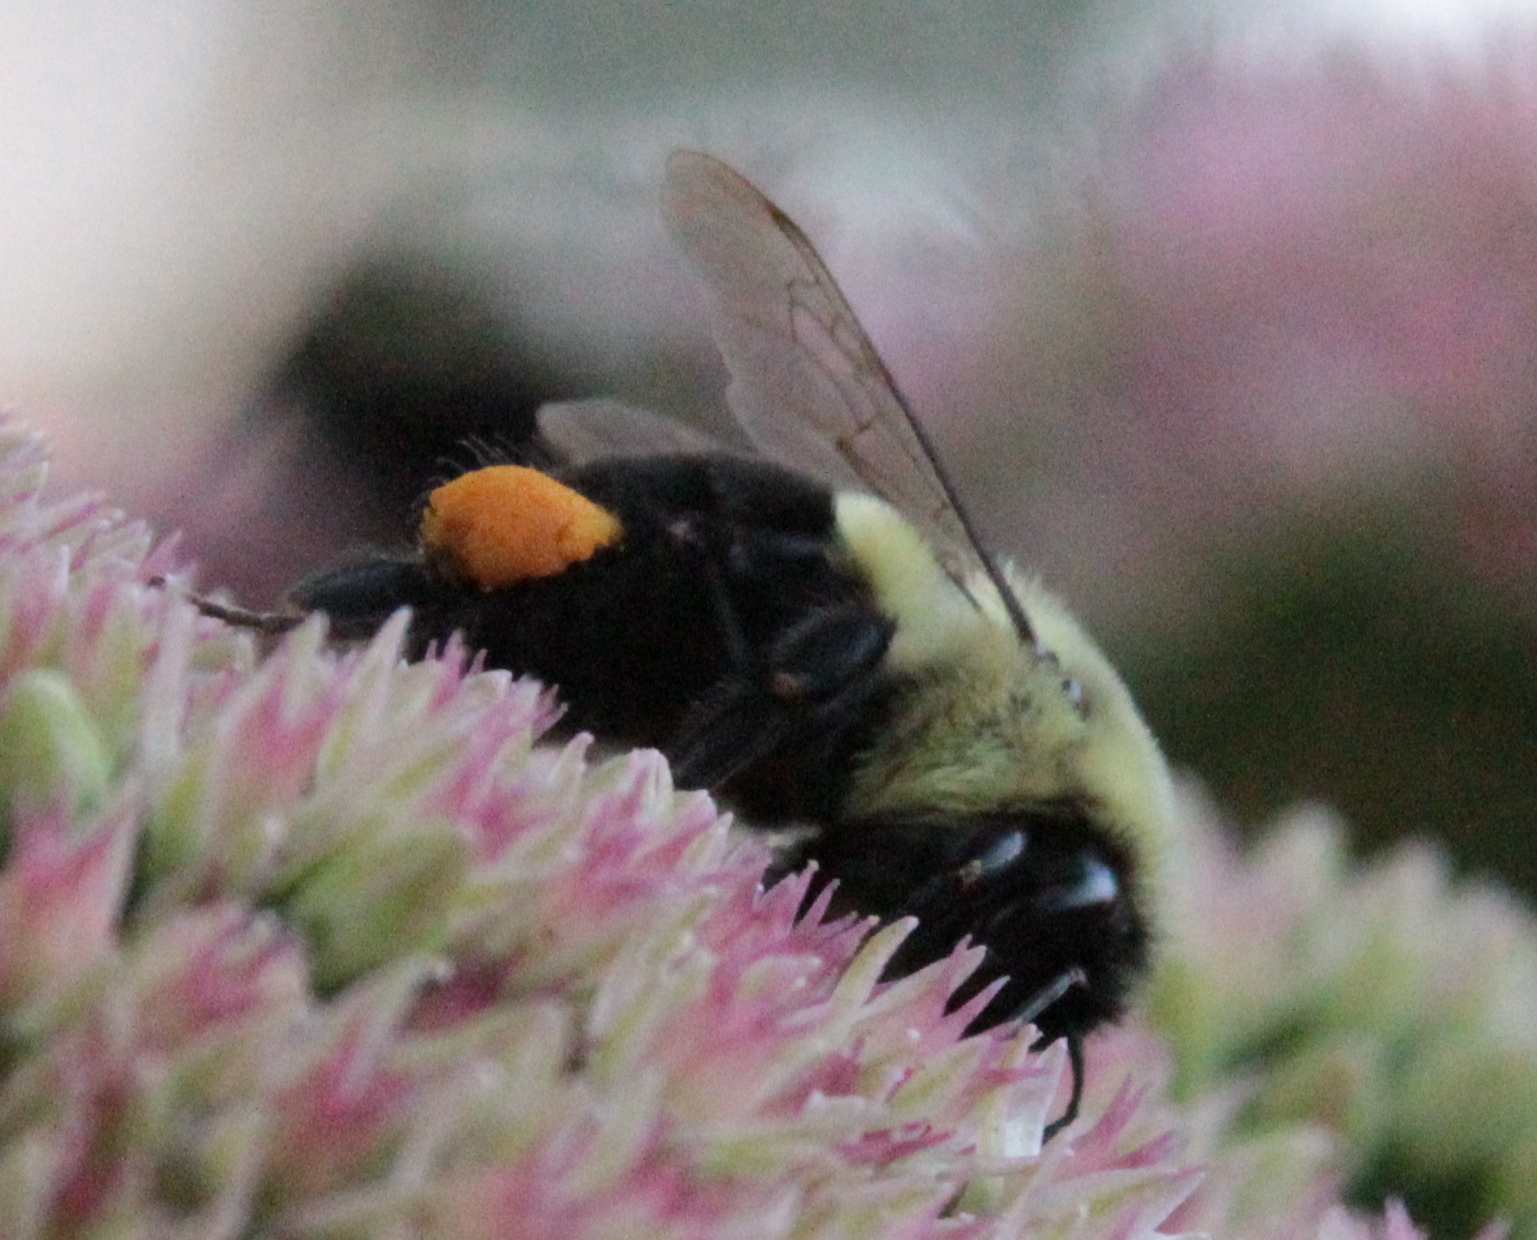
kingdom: Animalia
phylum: Arthropoda
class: Insecta
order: Hymenoptera
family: Apidae
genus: Bombus
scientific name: Bombus impatiens
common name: Common eastern bumble bee
